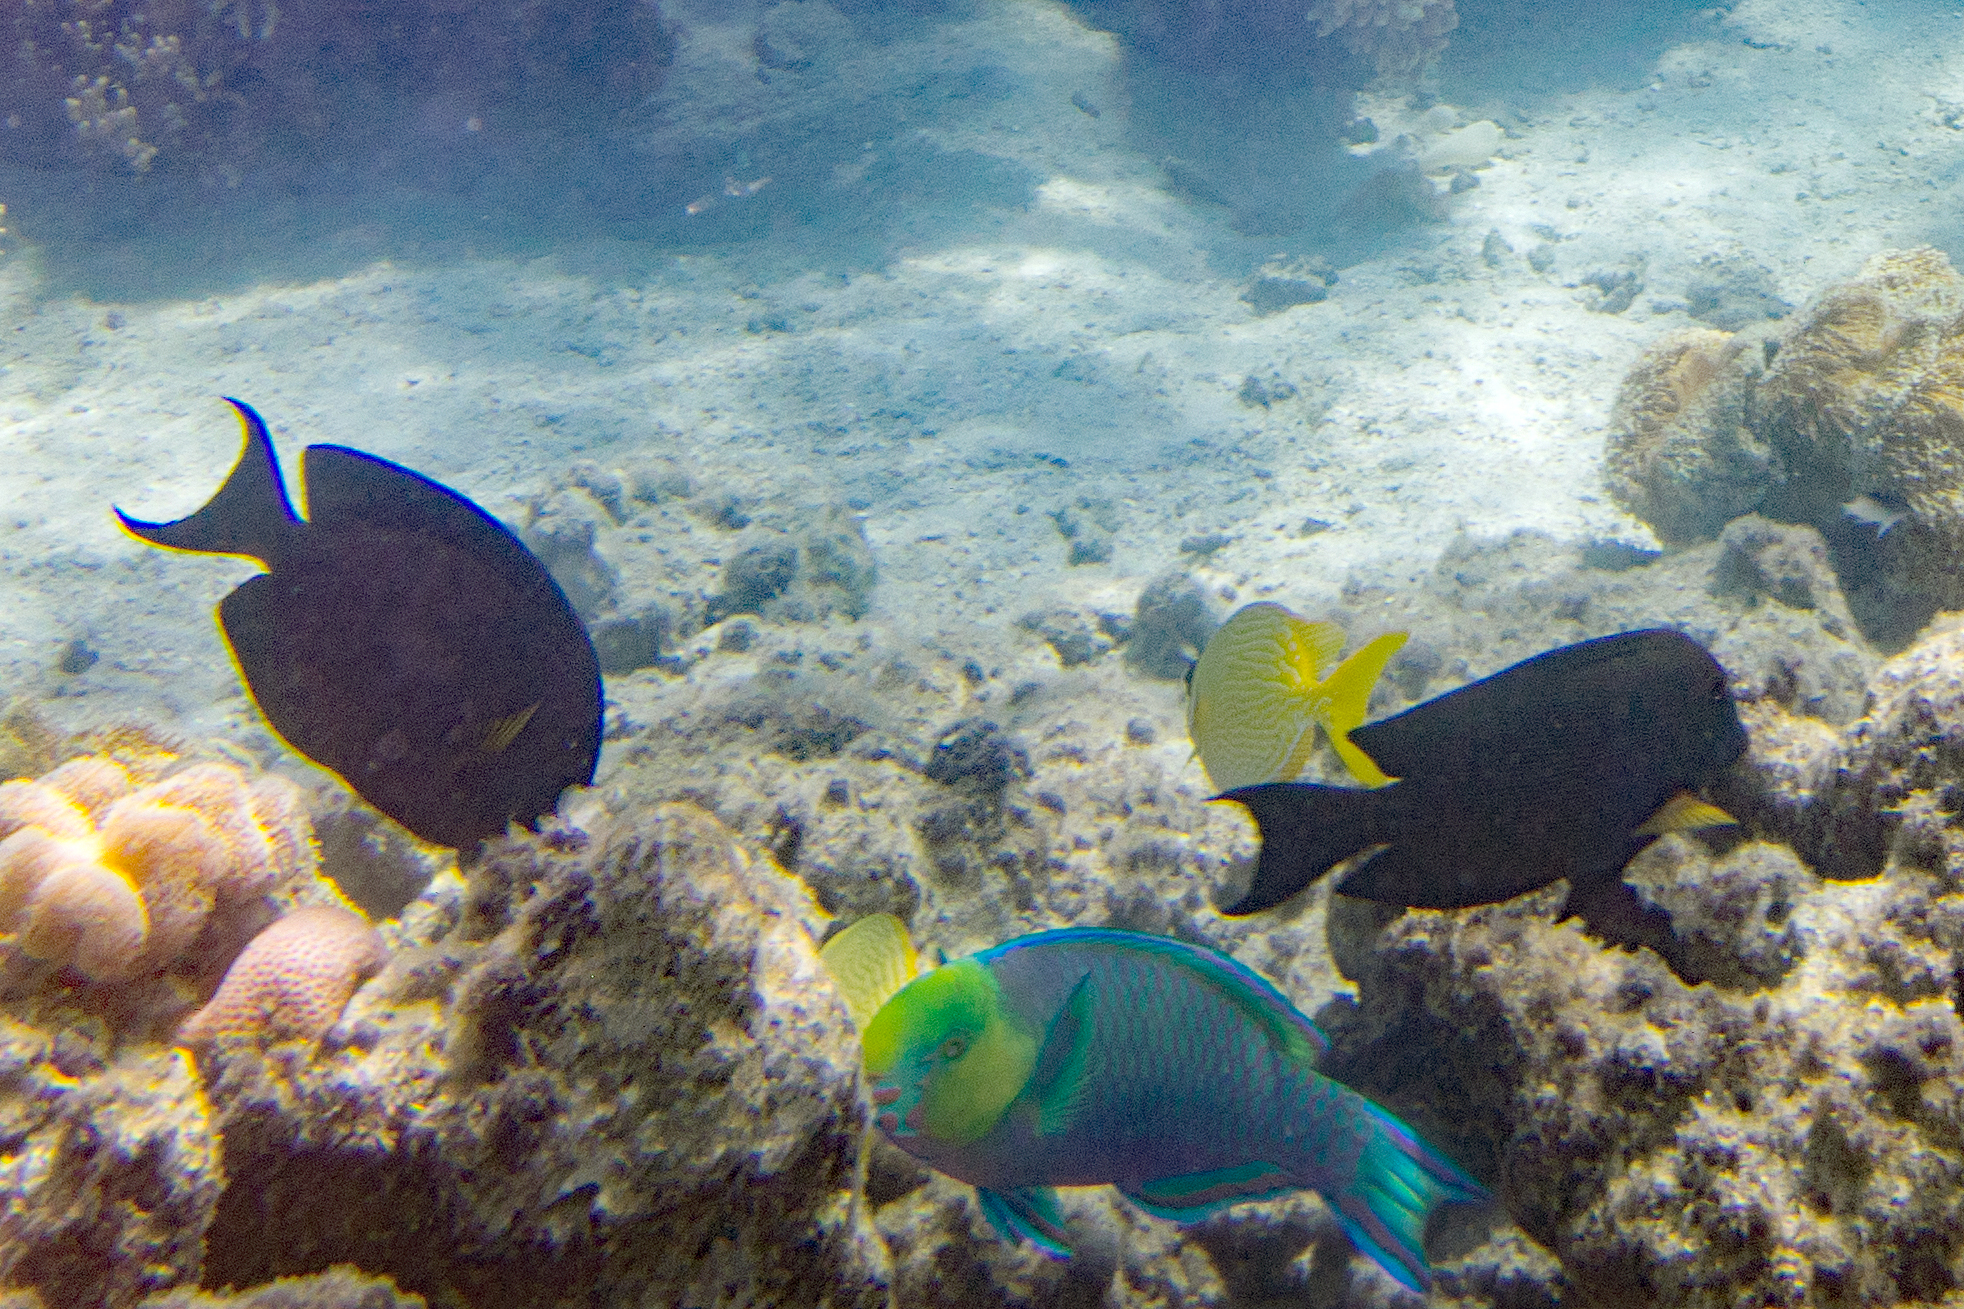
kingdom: Animalia
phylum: Chordata
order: Perciformes
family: Scaridae
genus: Scarus
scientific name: Scarus spinus
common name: Greensnout parrotfish
